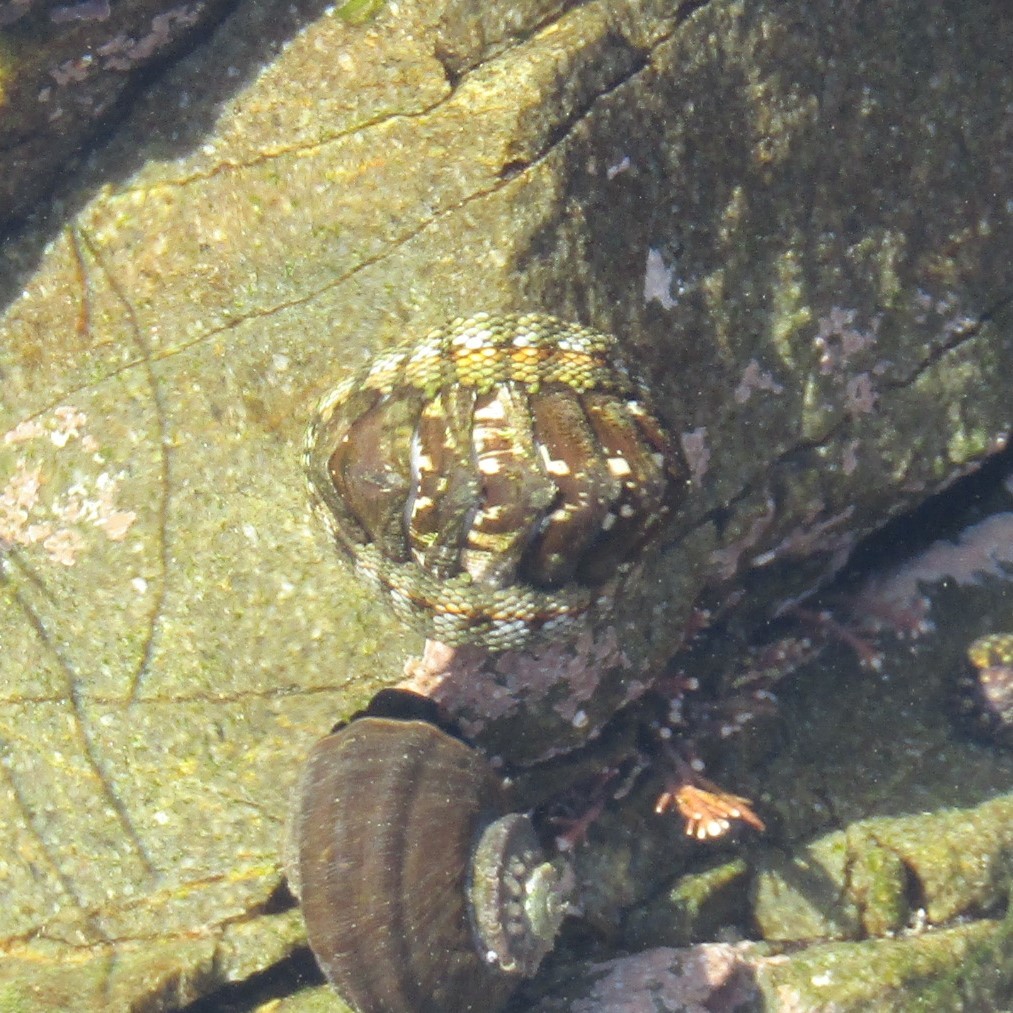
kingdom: Animalia
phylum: Mollusca
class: Polyplacophora
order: Chitonida
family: Chitonidae
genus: Sypharochiton
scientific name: Sypharochiton sinclairi
